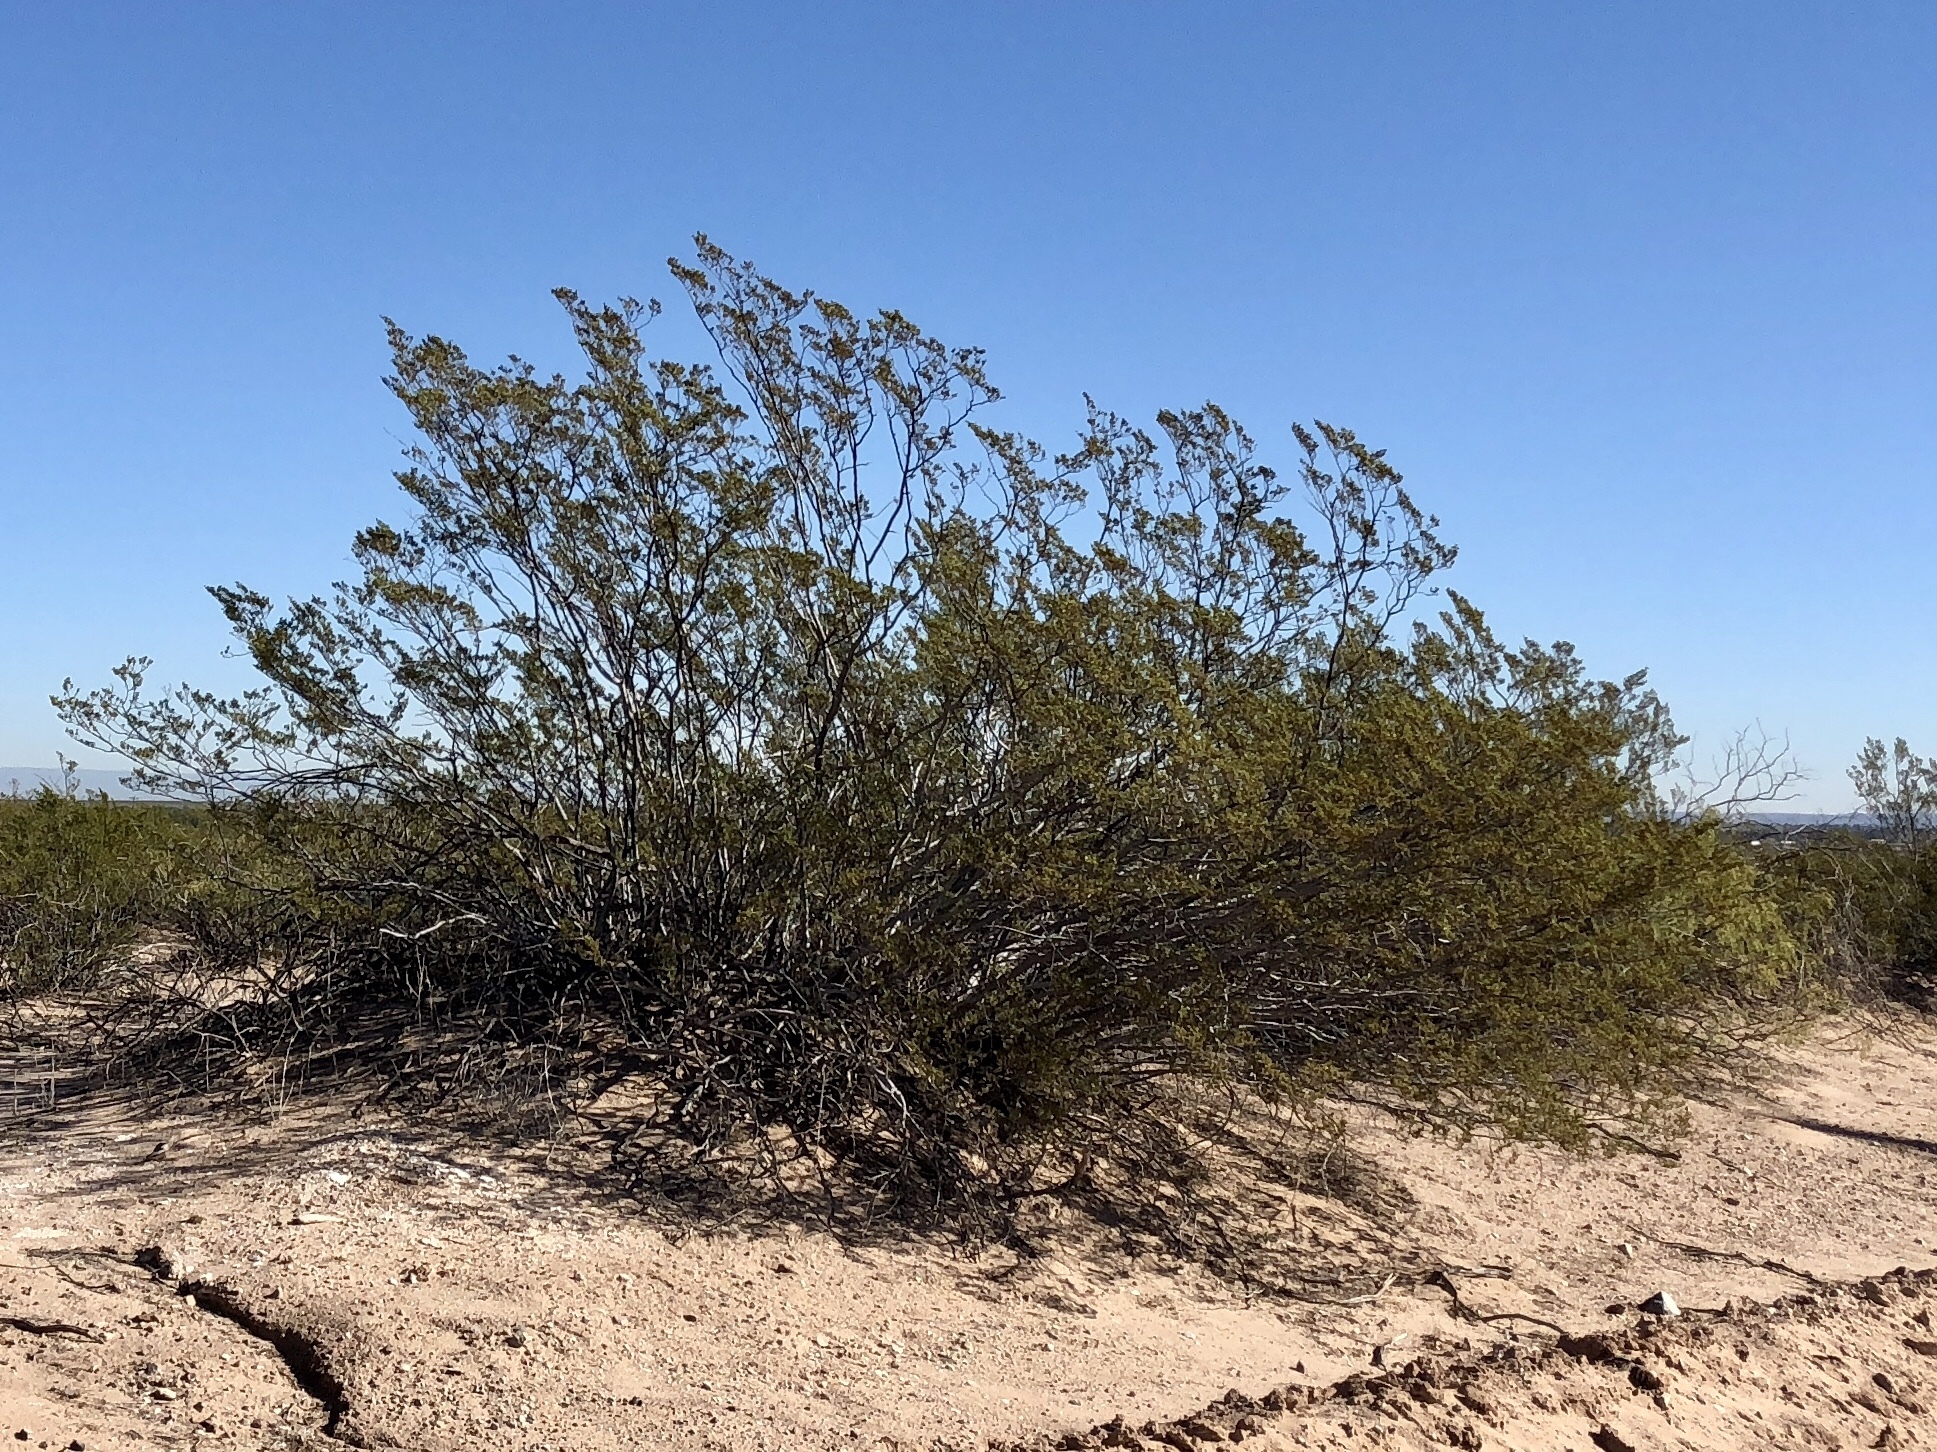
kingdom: Plantae
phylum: Tracheophyta
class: Magnoliopsida
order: Zygophyllales
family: Zygophyllaceae
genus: Larrea
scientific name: Larrea tridentata
